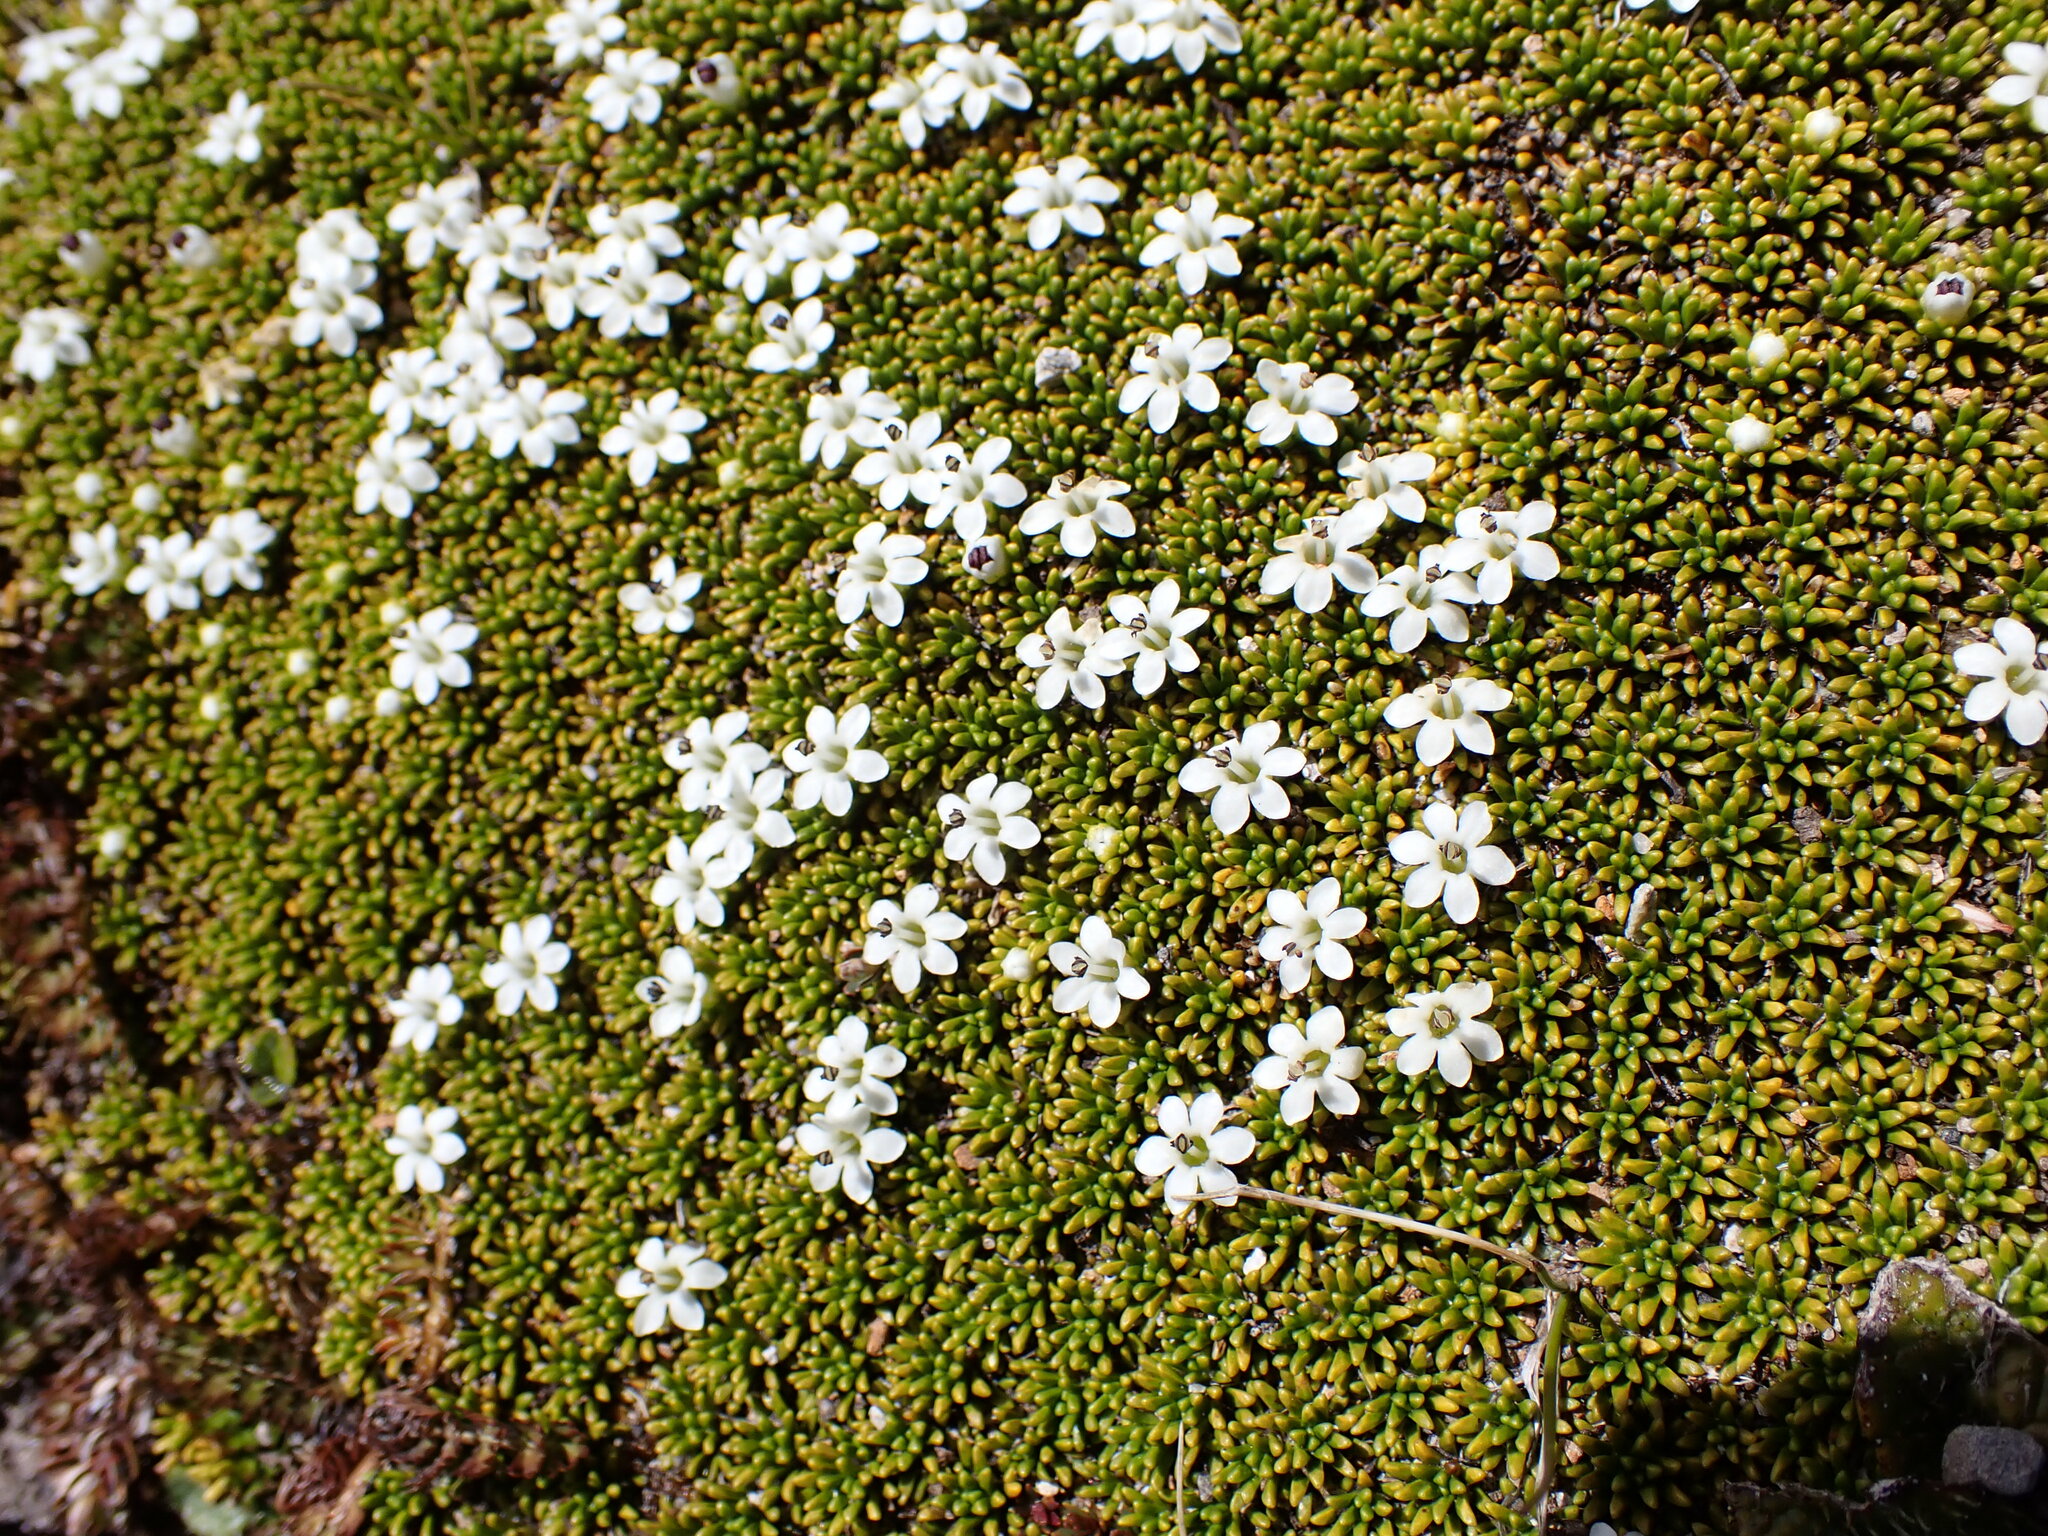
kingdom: Plantae
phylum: Tracheophyta
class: Magnoliopsida
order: Asterales
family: Stylidiaceae
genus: Phyllachne
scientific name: Phyllachne colensoi
